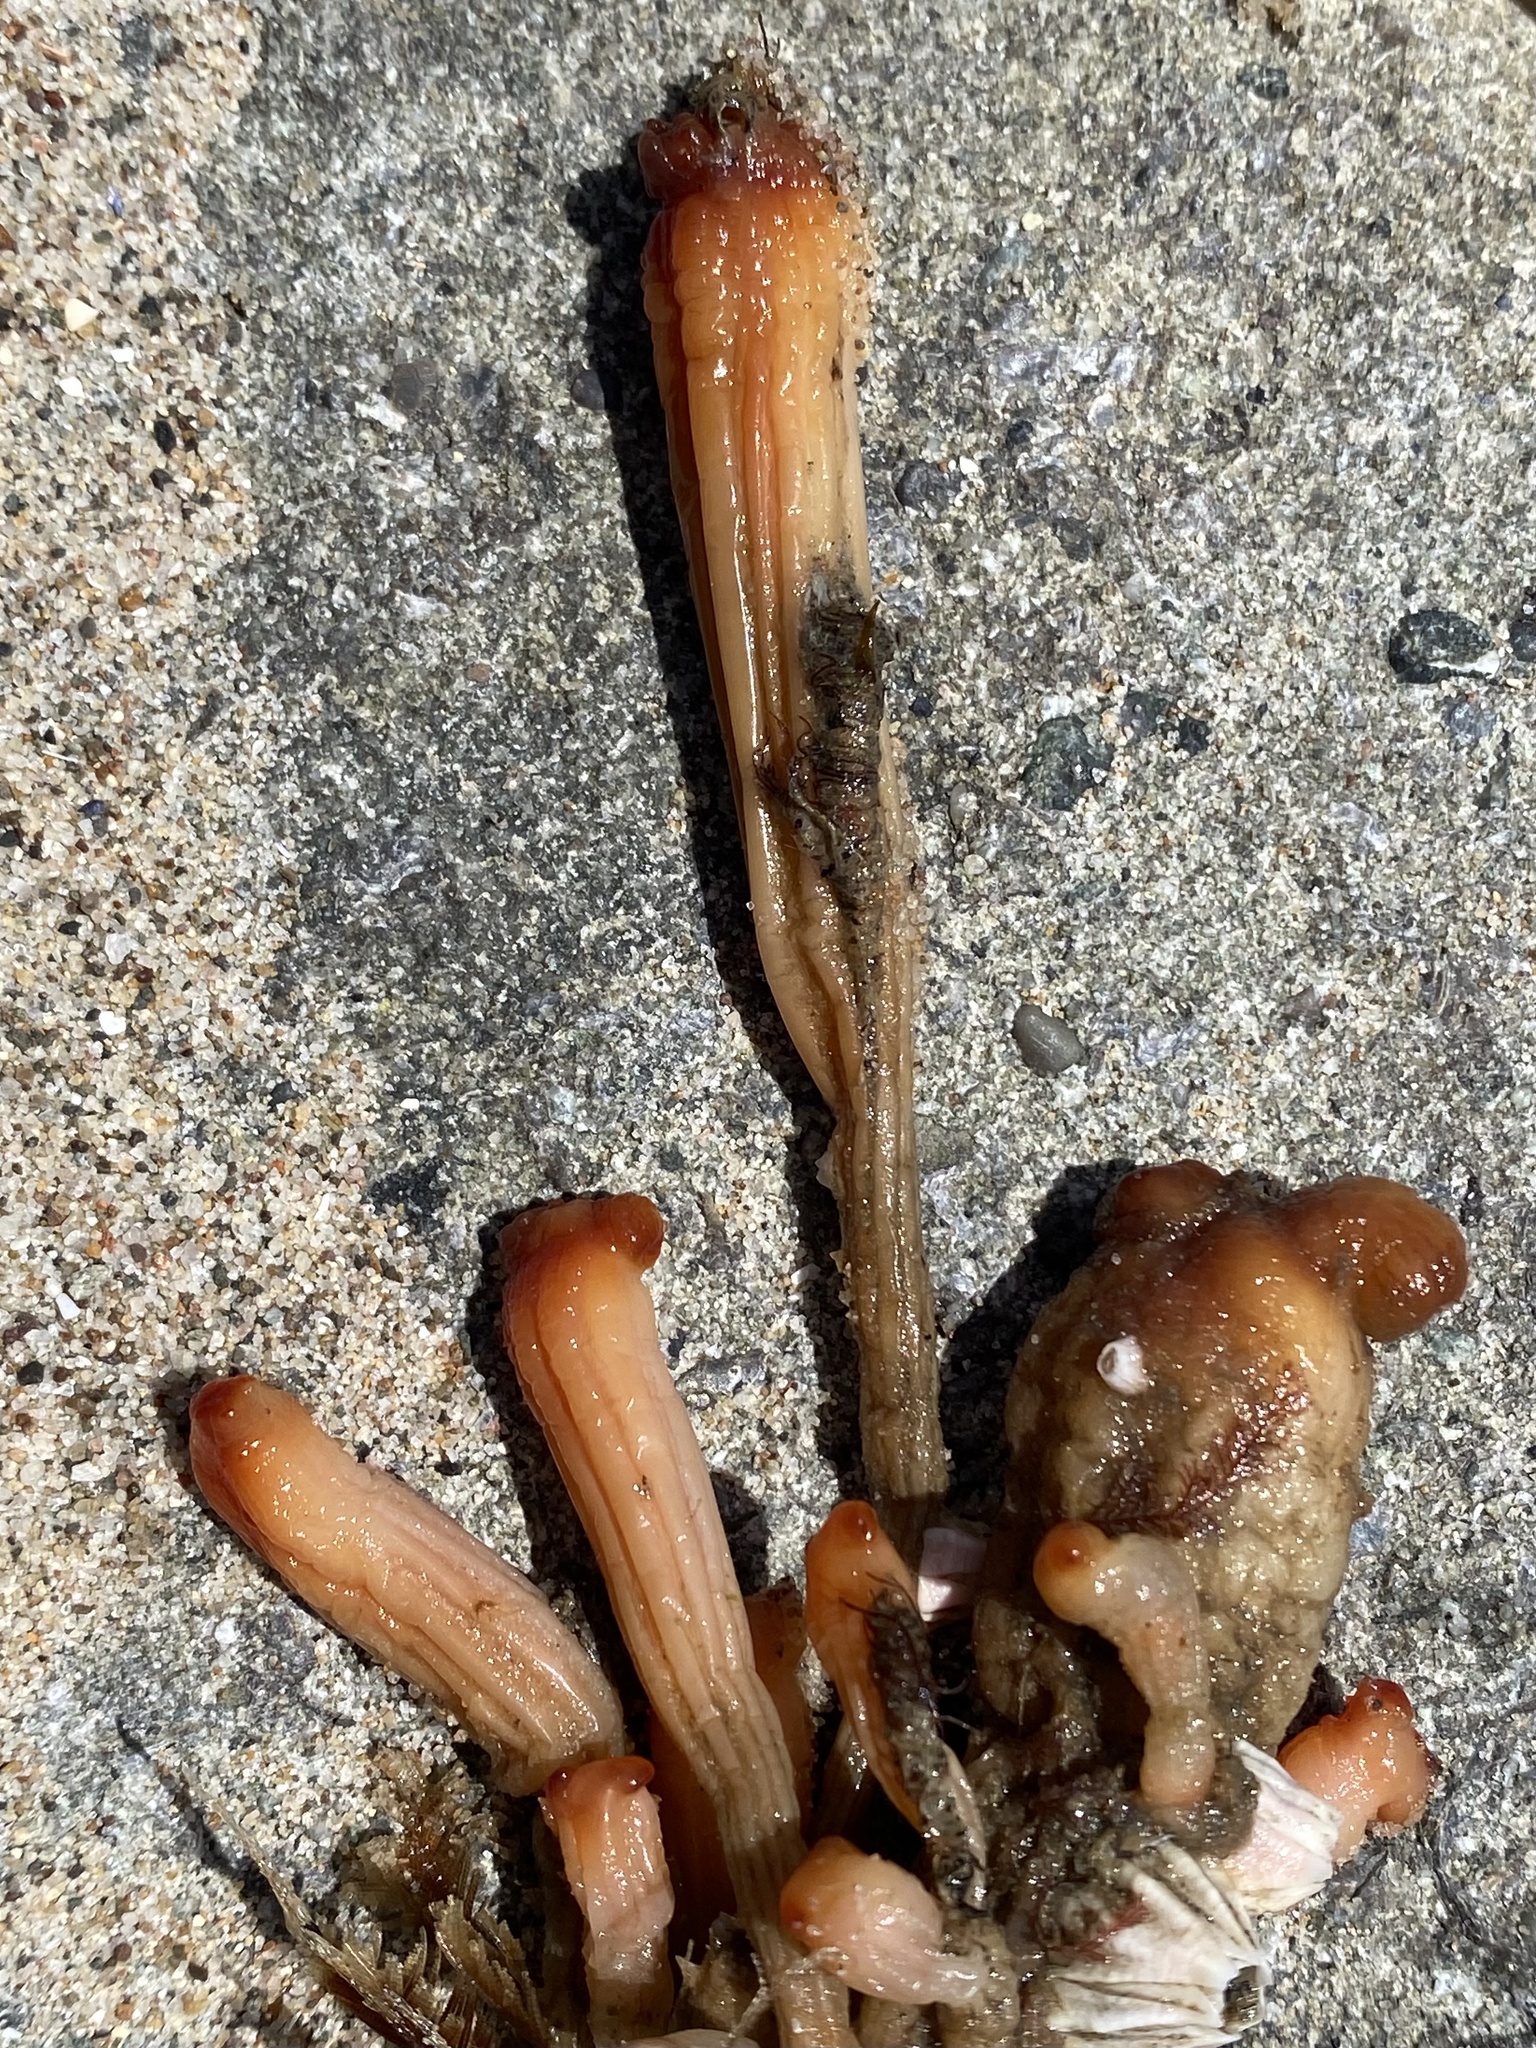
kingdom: Animalia
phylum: Chordata
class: Ascidiacea
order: Stolidobranchia
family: Styelidae
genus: Styela
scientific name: Styela montereyensis
